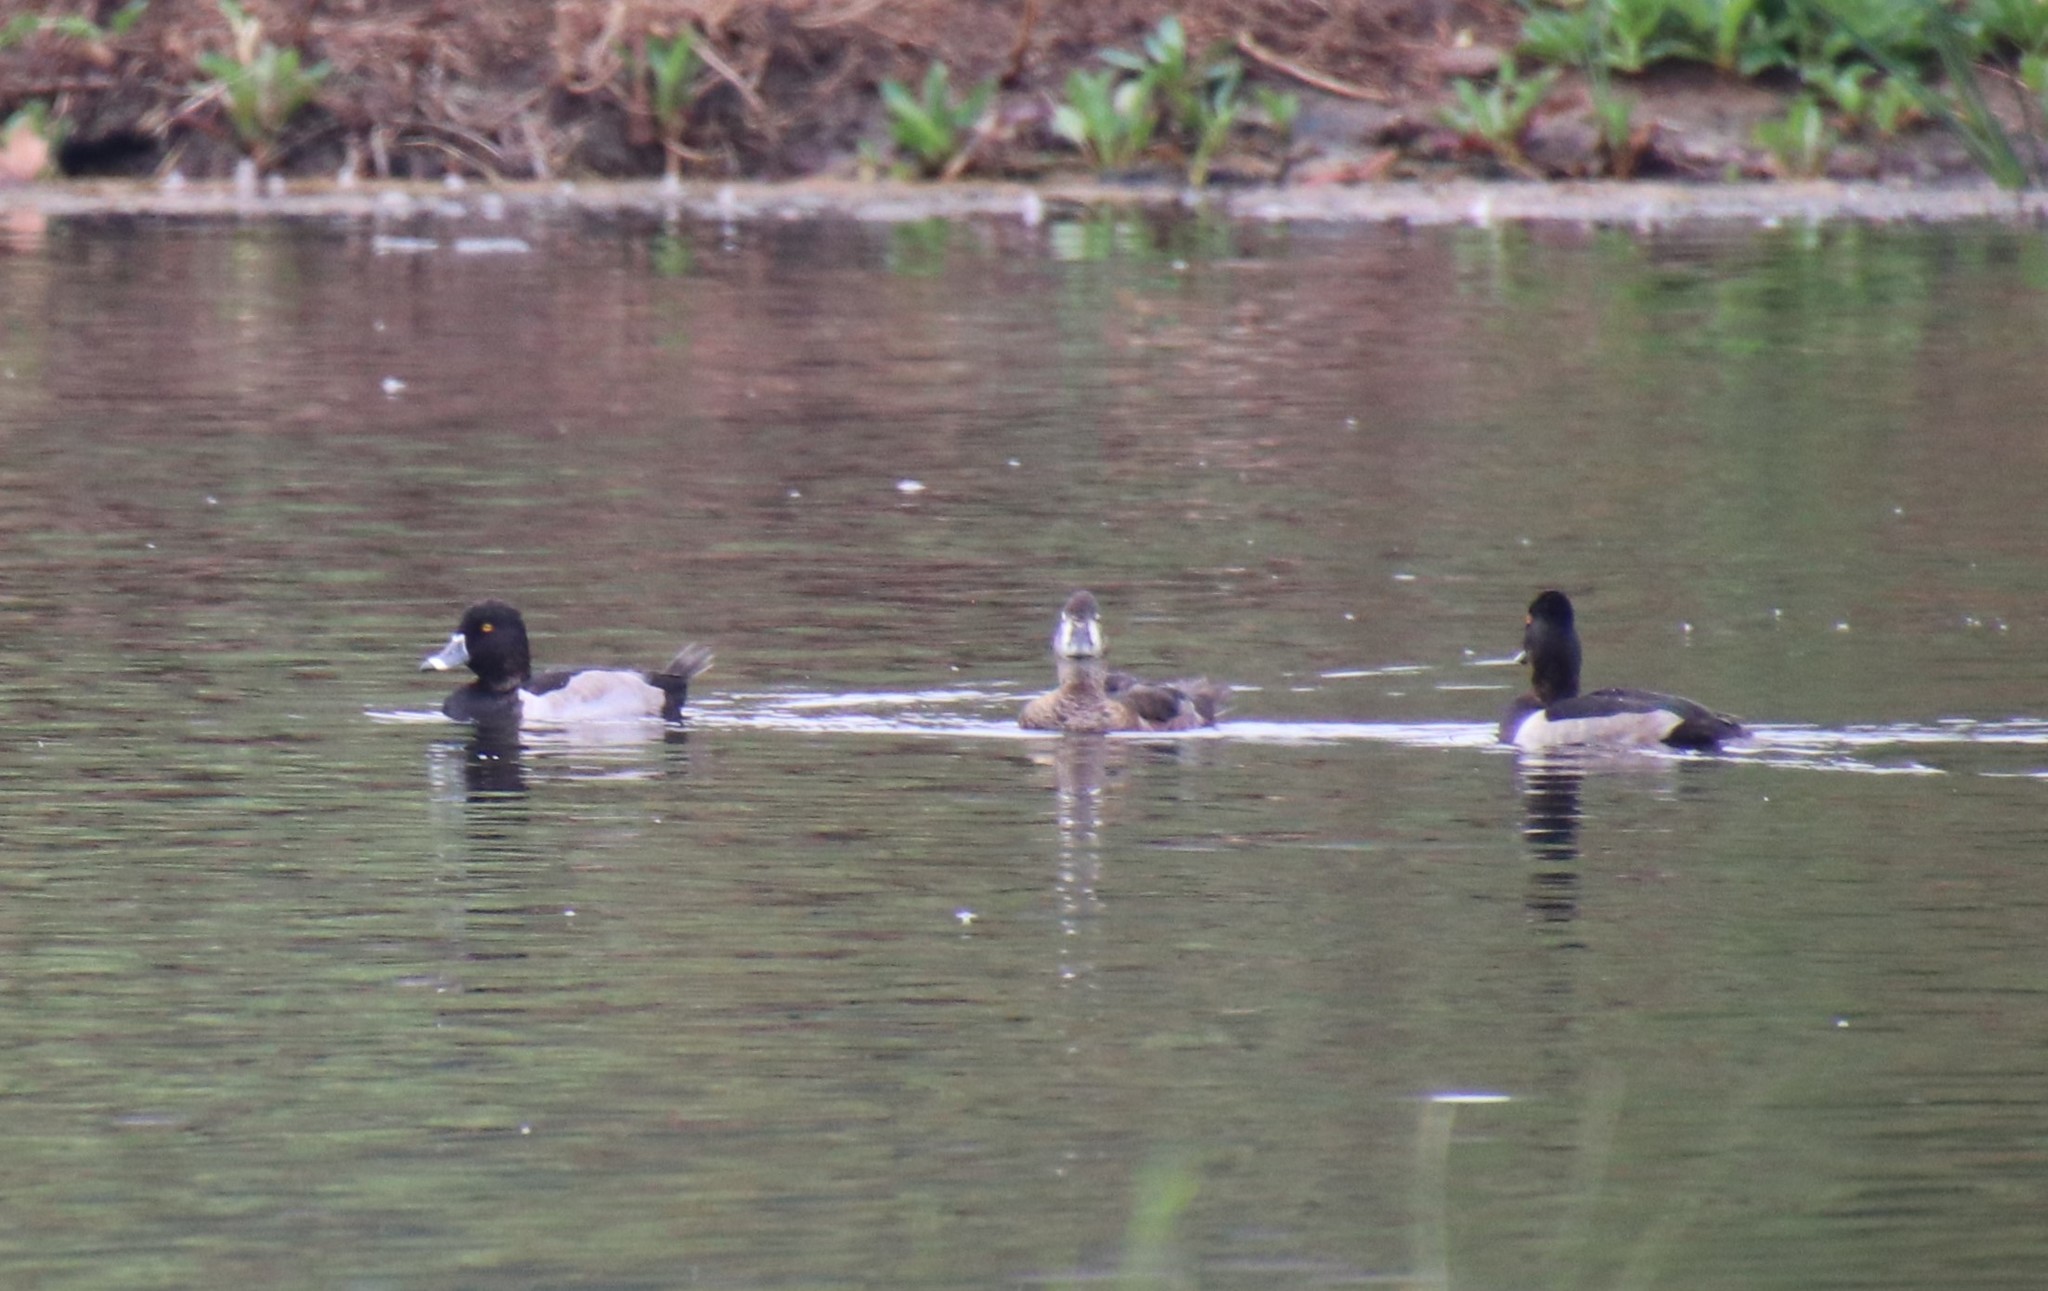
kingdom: Animalia
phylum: Chordata
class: Aves
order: Anseriformes
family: Anatidae
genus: Aythya
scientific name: Aythya collaris
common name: Ring-necked duck
